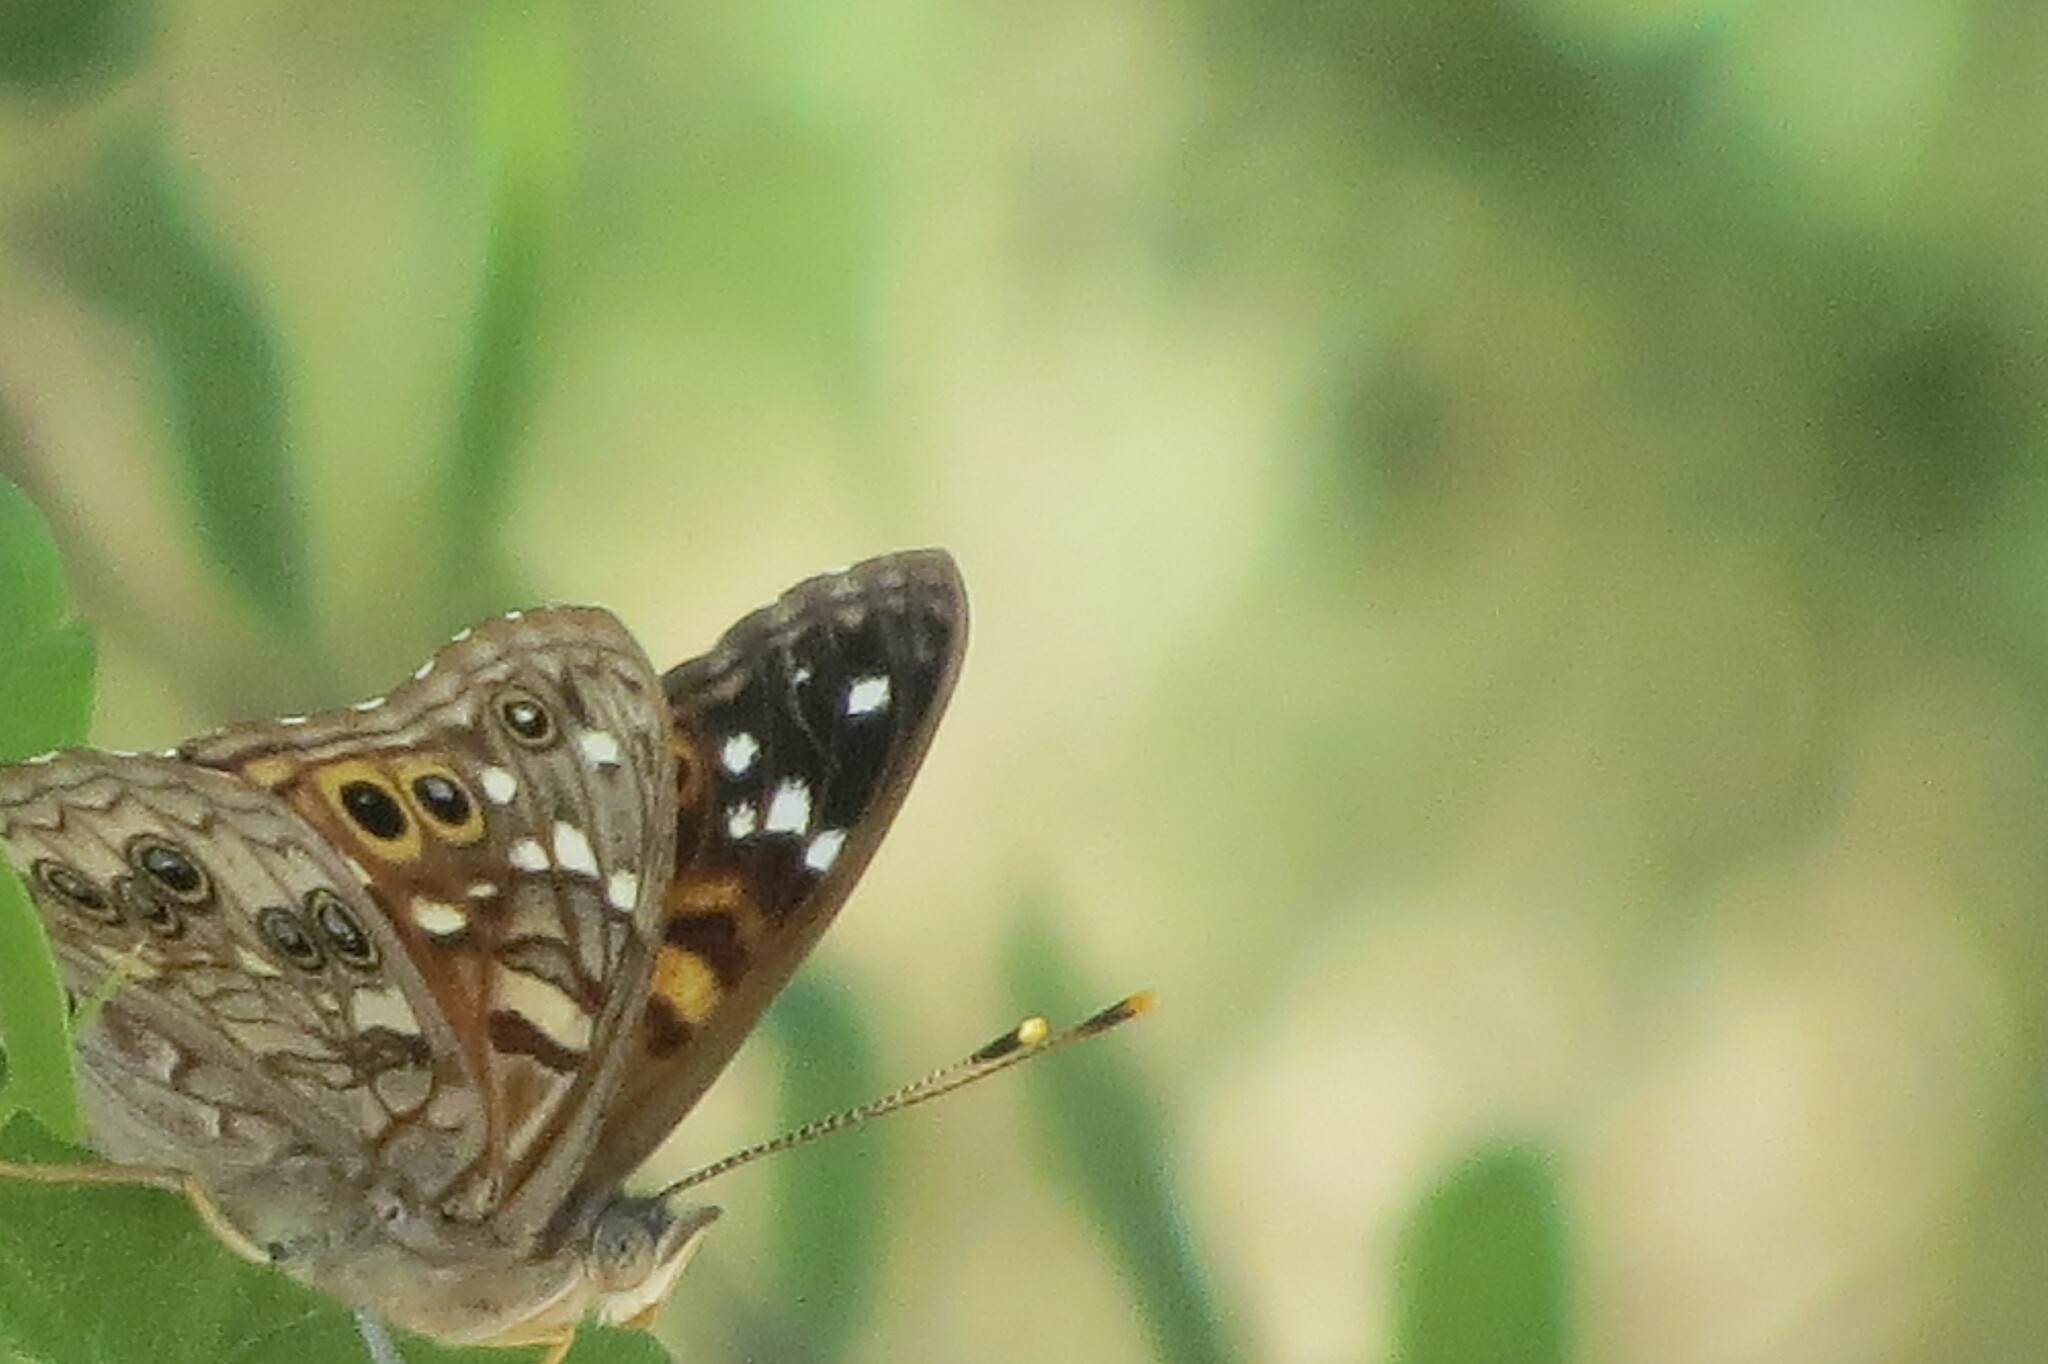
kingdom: Animalia
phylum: Arthropoda
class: Insecta
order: Lepidoptera
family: Nymphalidae
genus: Asterocampa
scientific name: Asterocampa leilia
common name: Empress leilia
